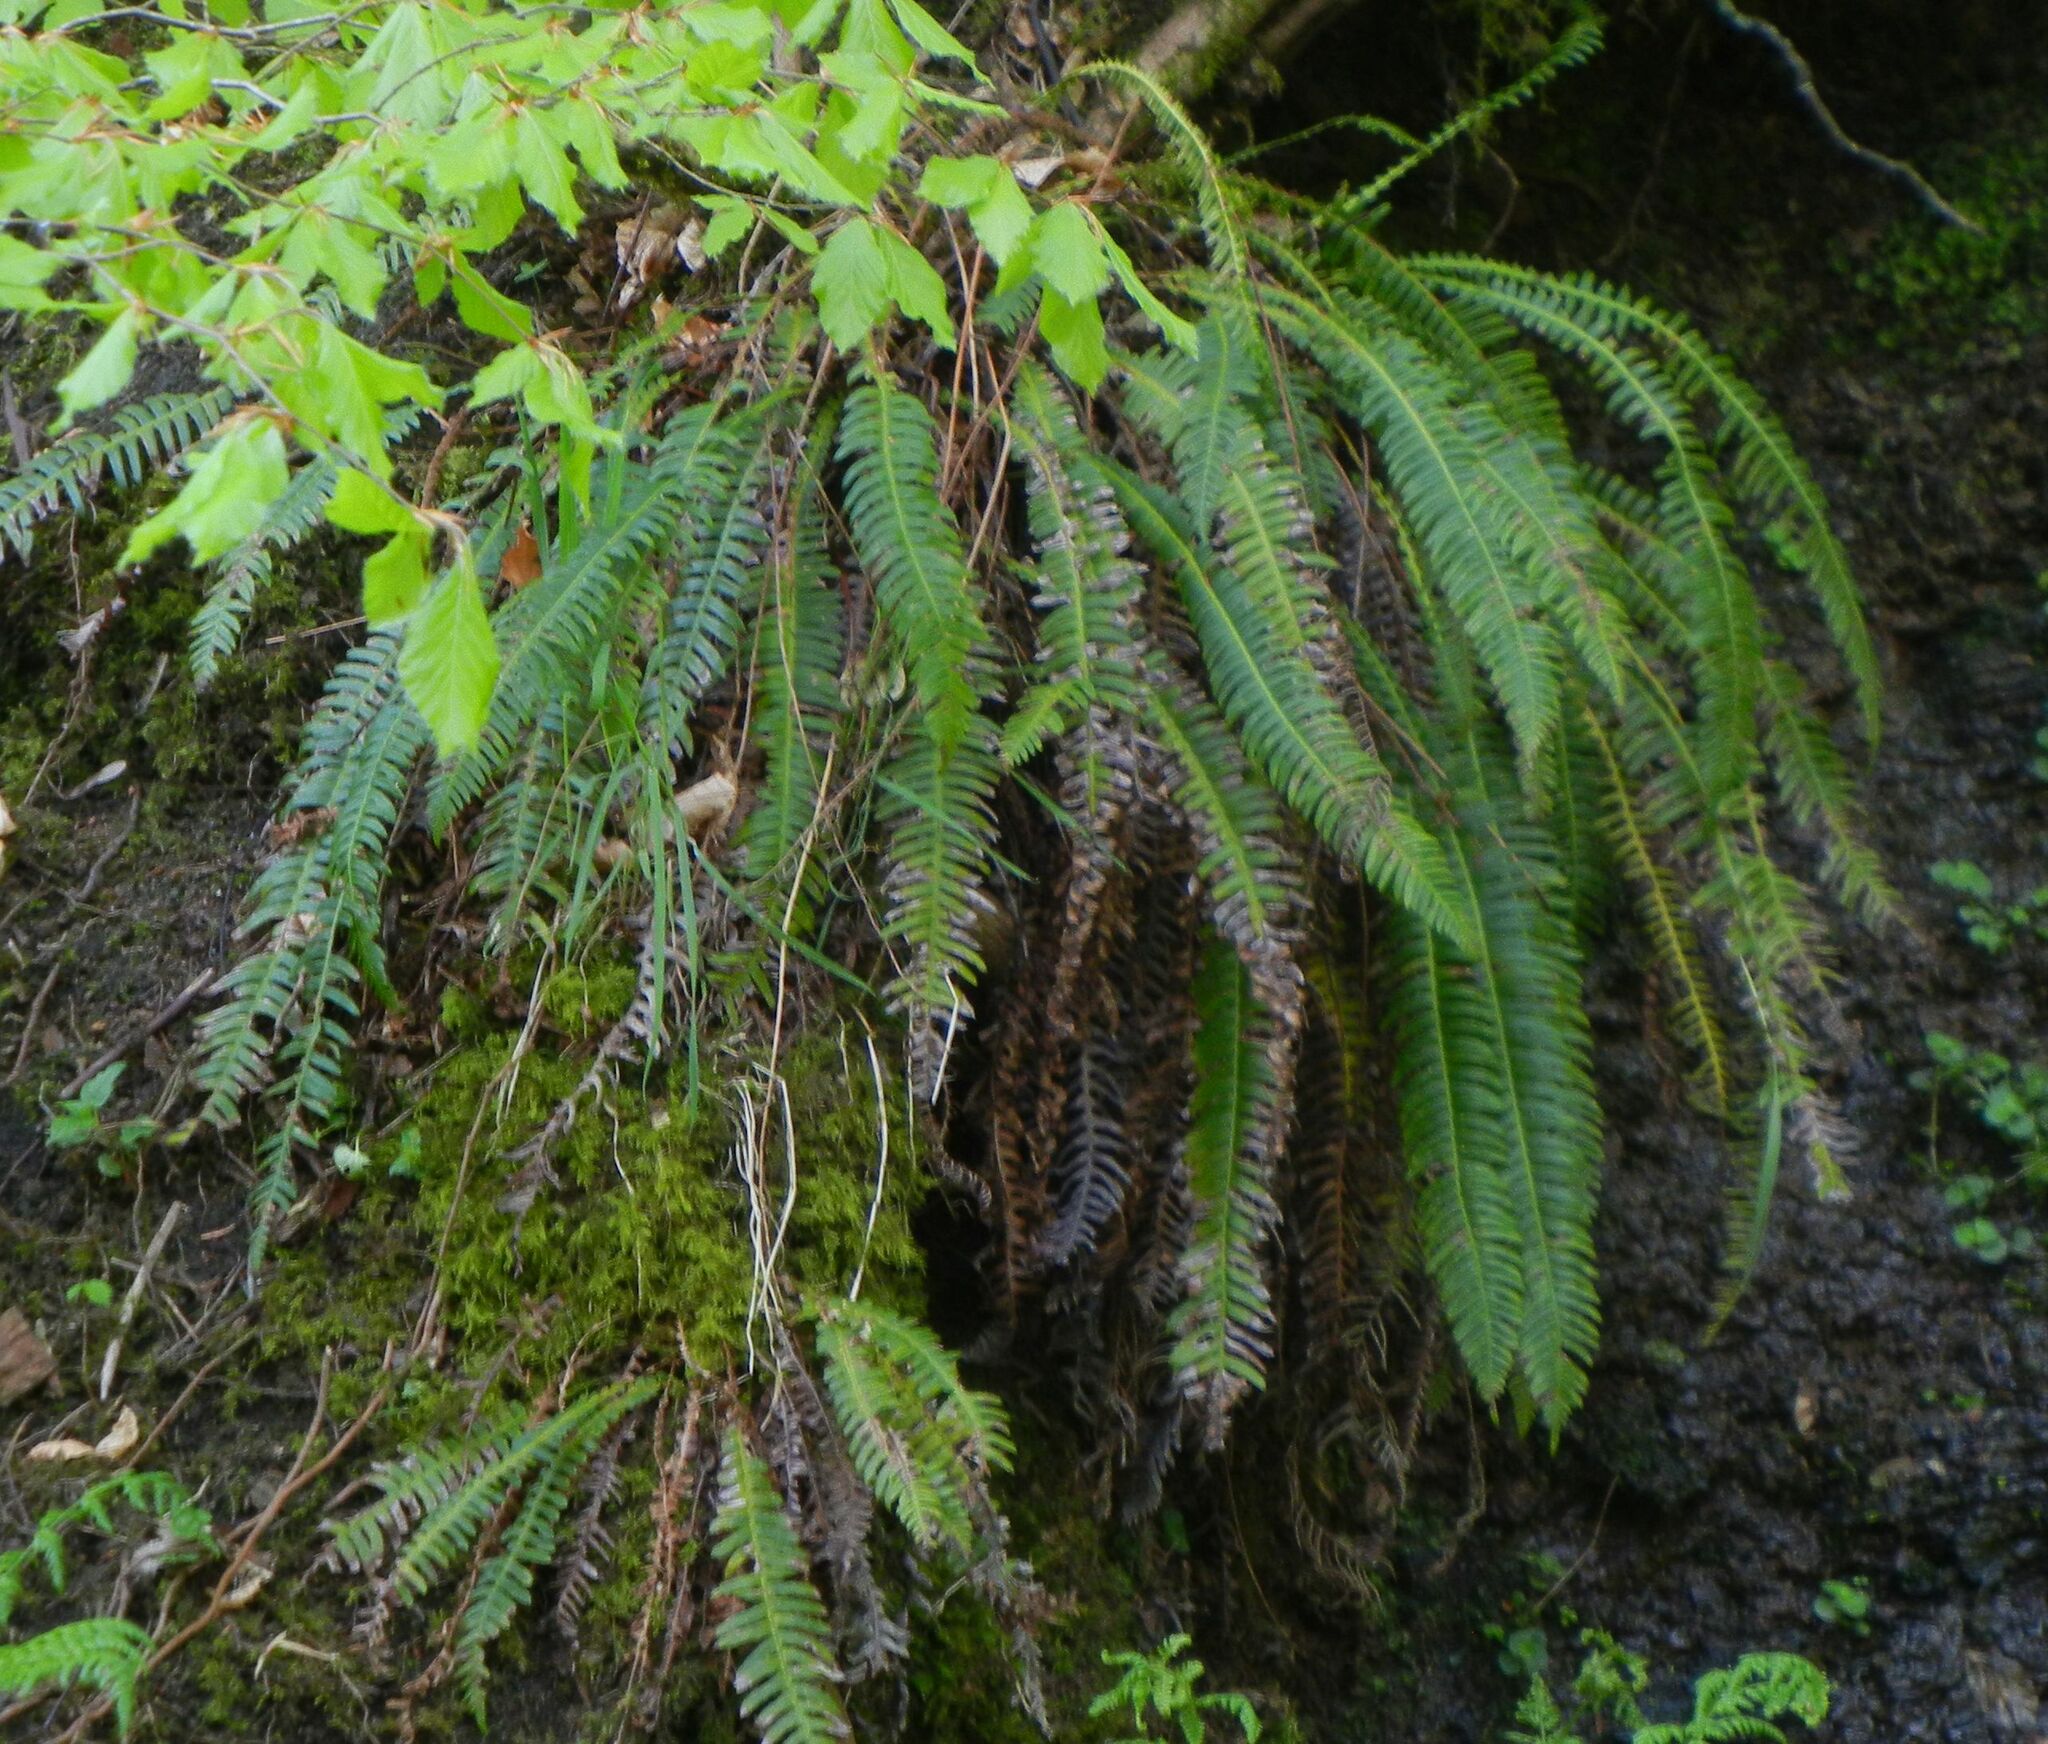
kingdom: Plantae
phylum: Tracheophyta
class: Polypodiopsida
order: Polypodiales
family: Blechnaceae
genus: Struthiopteris
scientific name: Struthiopteris spicant
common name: Deer fern
